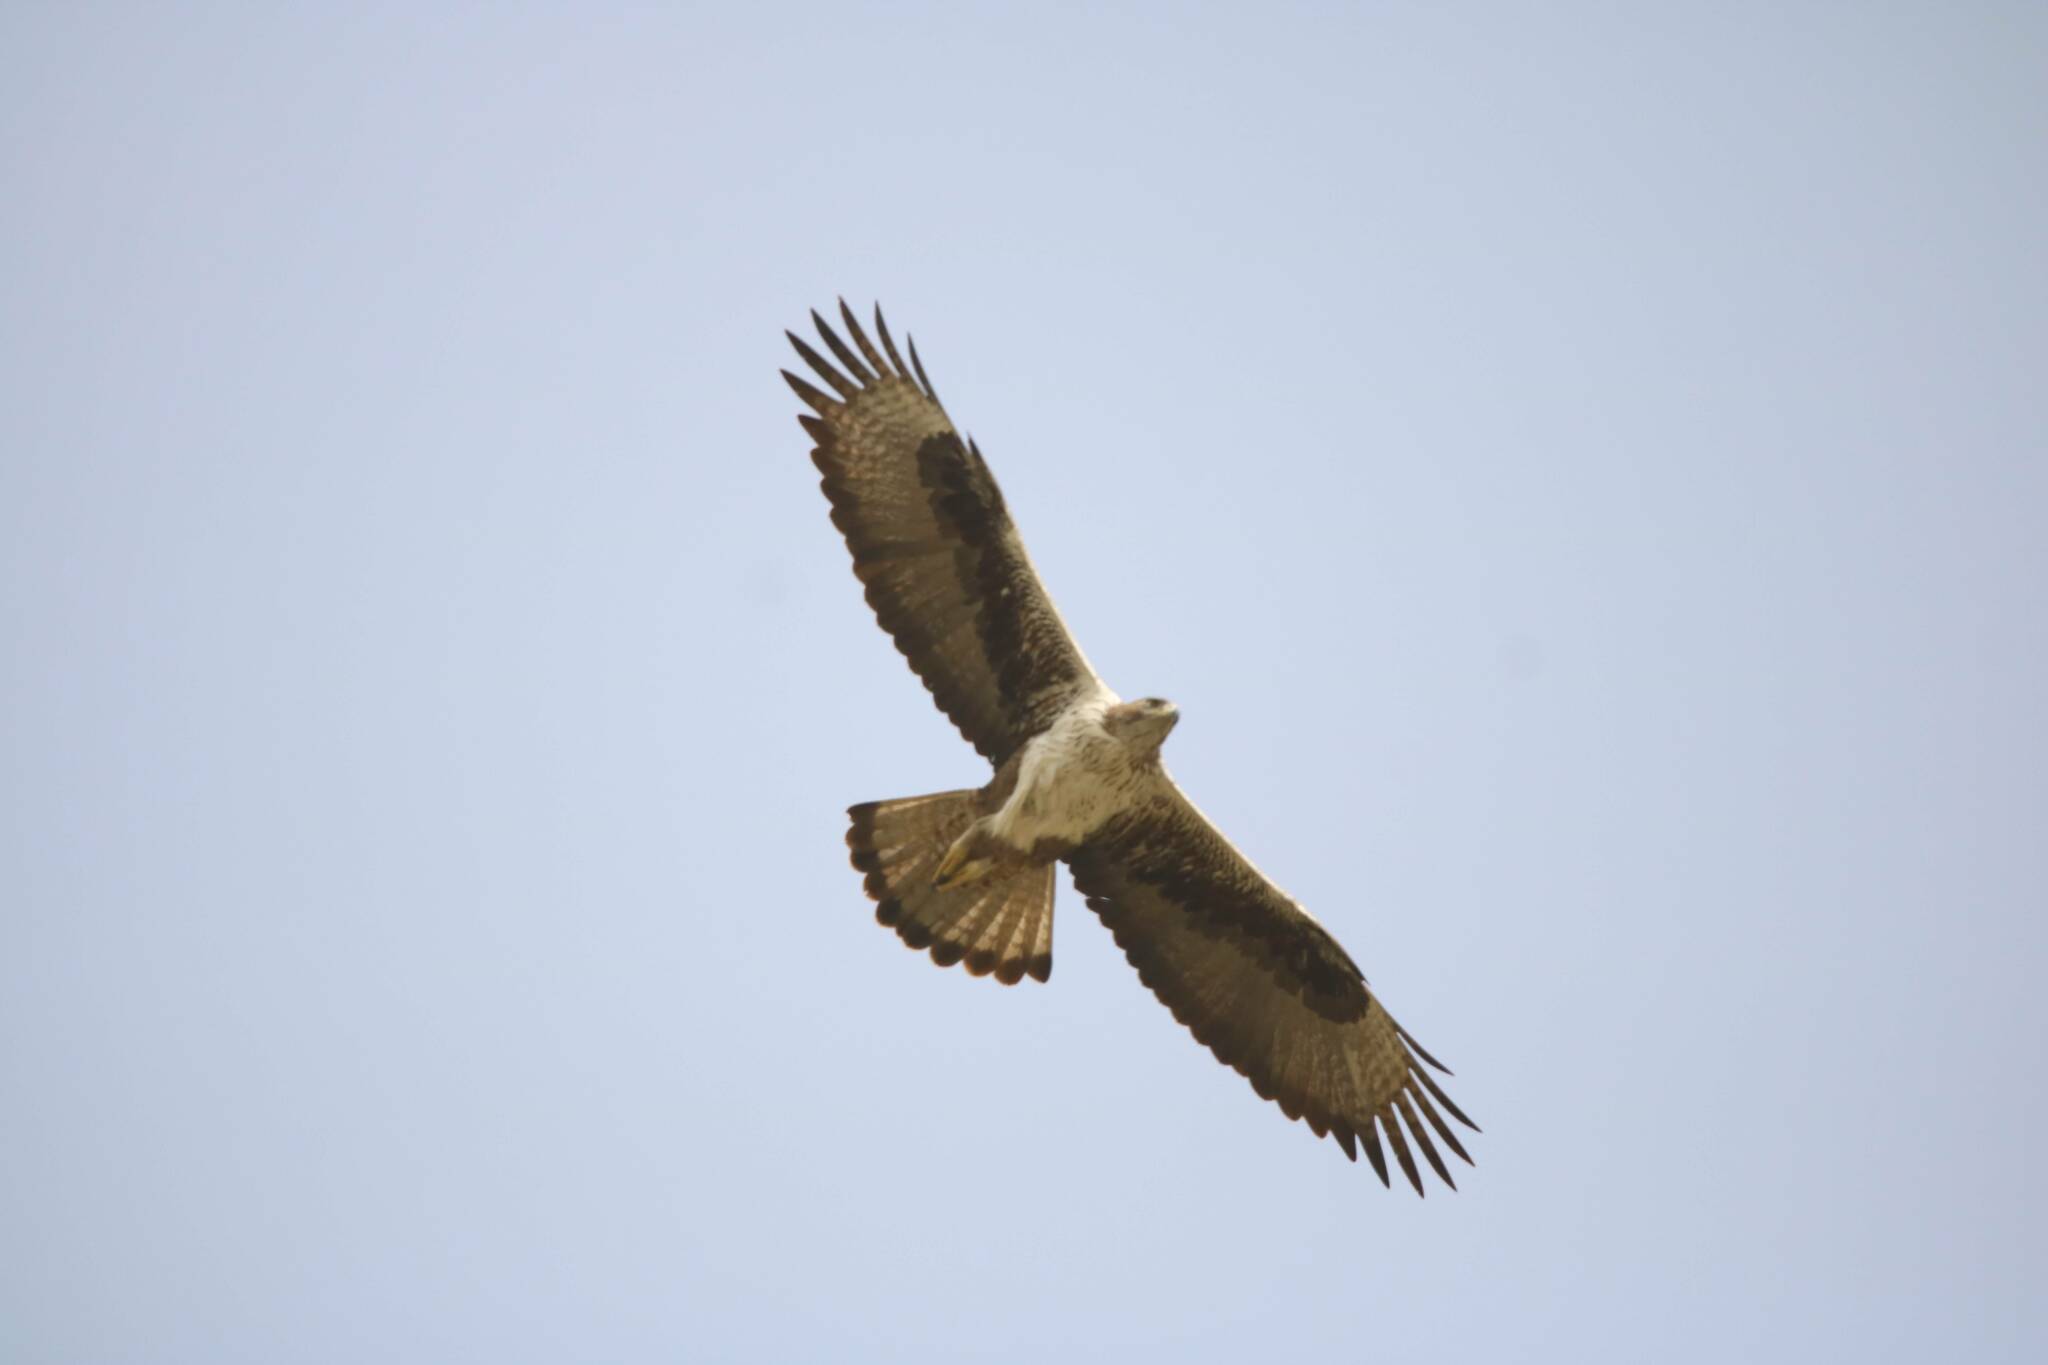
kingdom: Animalia
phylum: Chordata
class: Aves
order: Accipitriformes
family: Accipitridae
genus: Aquila
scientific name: Aquila fasciata
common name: Bonelli's eagle
